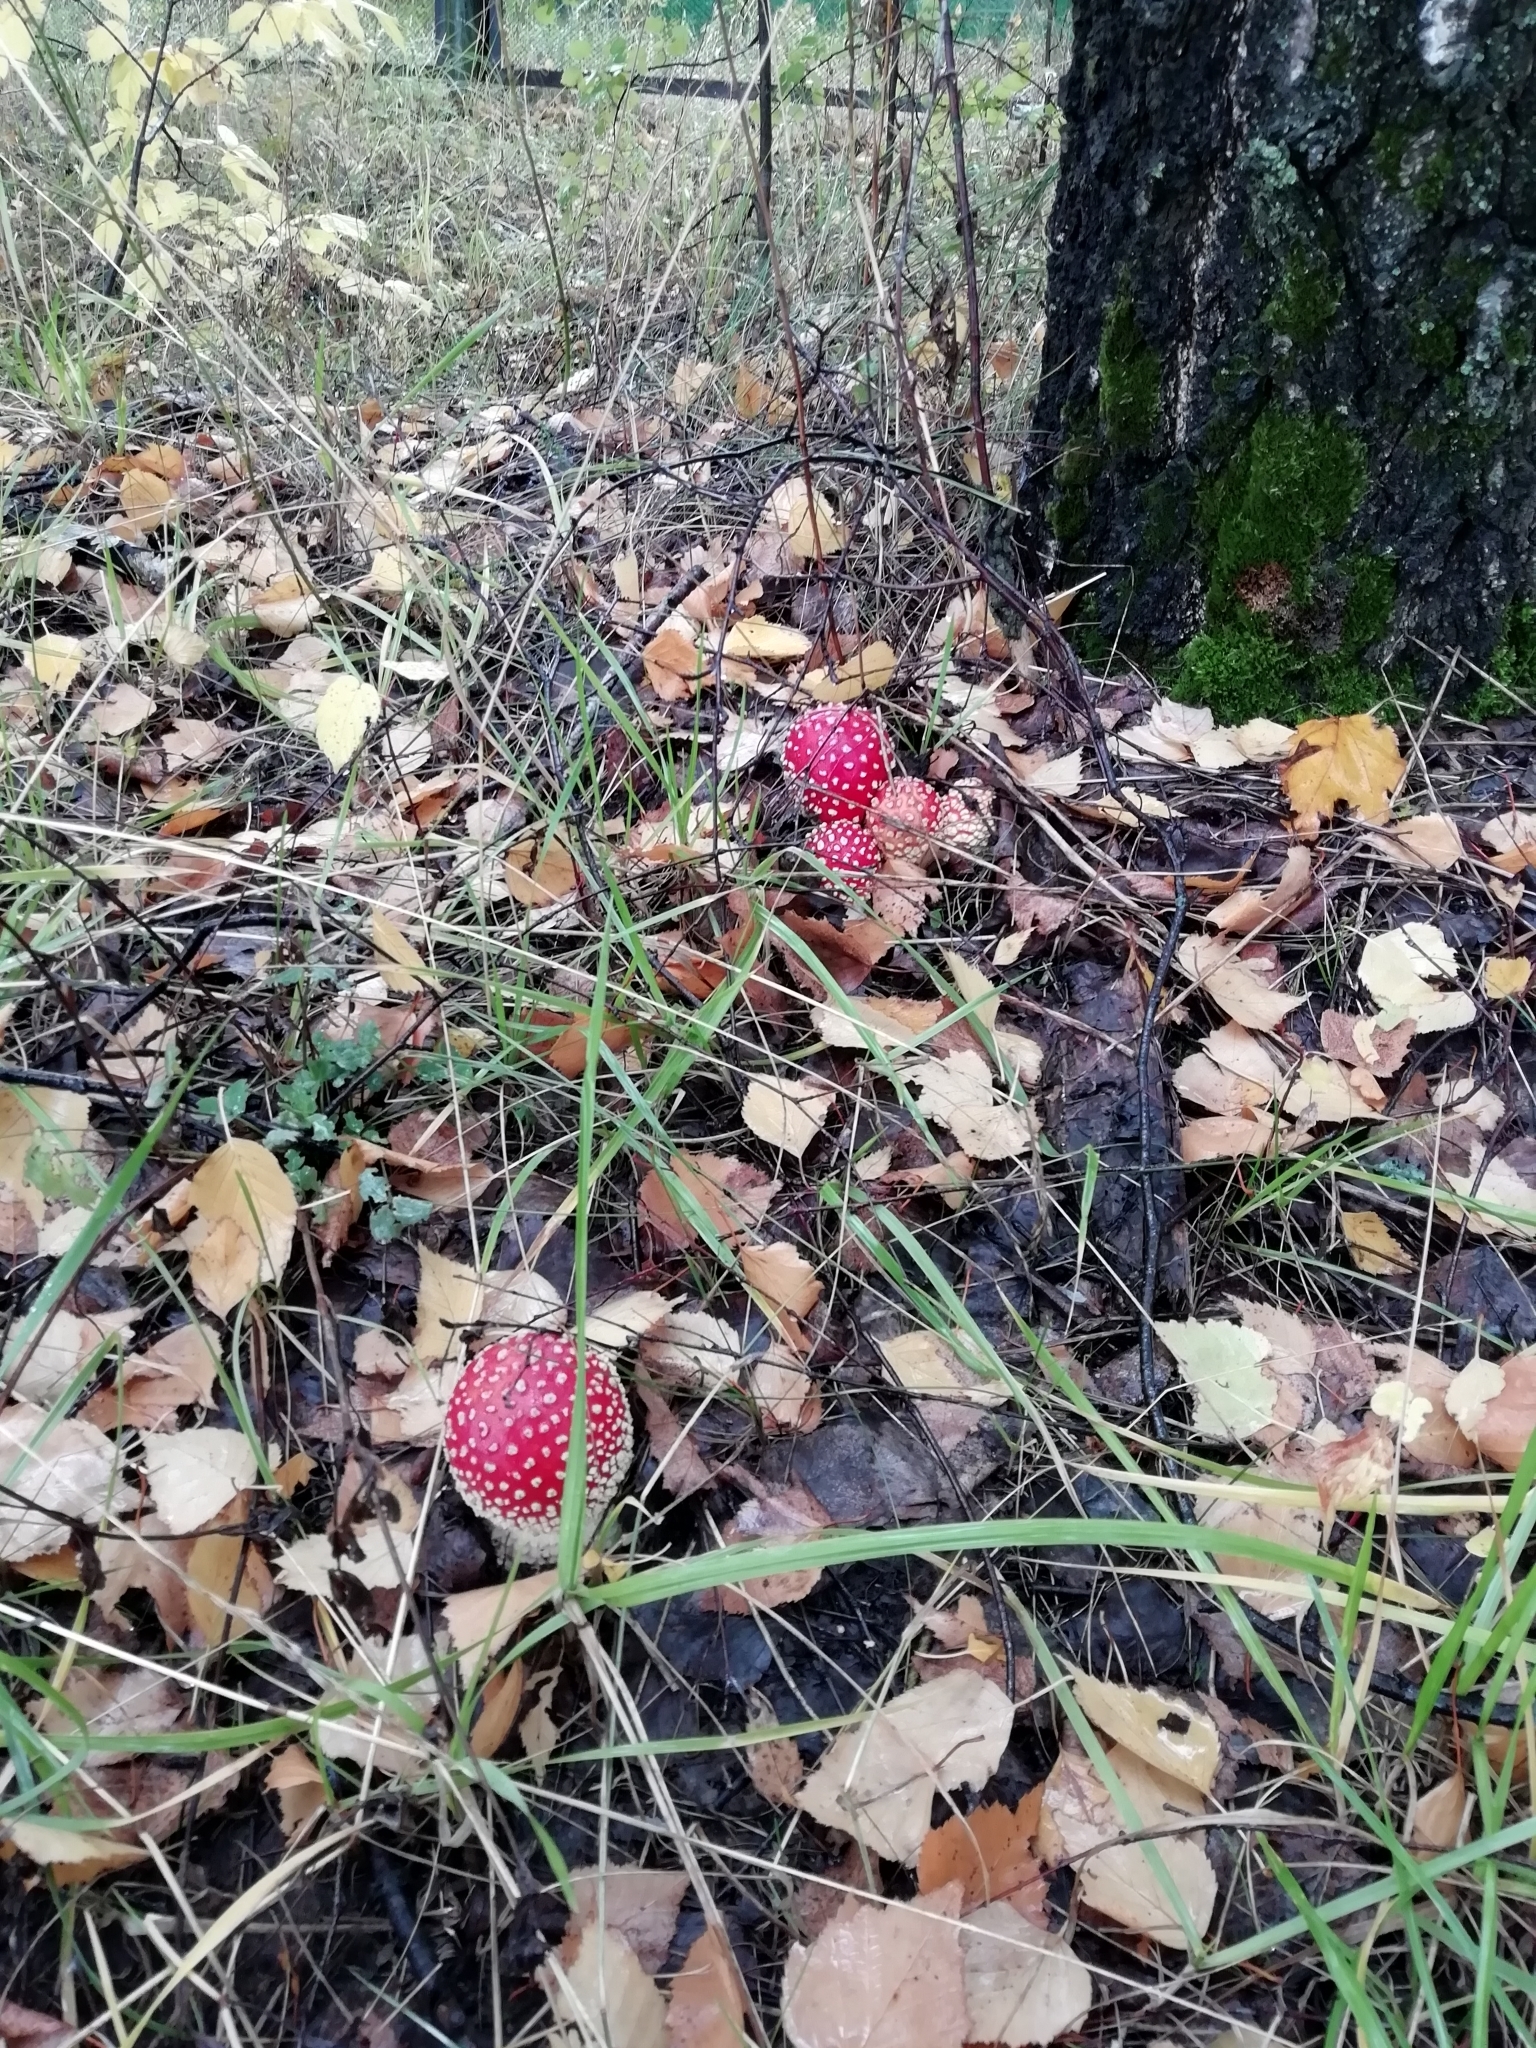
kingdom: Fungi
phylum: Basidiomycota
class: Agaricomycetes
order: Agaricales
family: Amanitaceae
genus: Amanita
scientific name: Amanita muscaria
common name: Fly agaric
